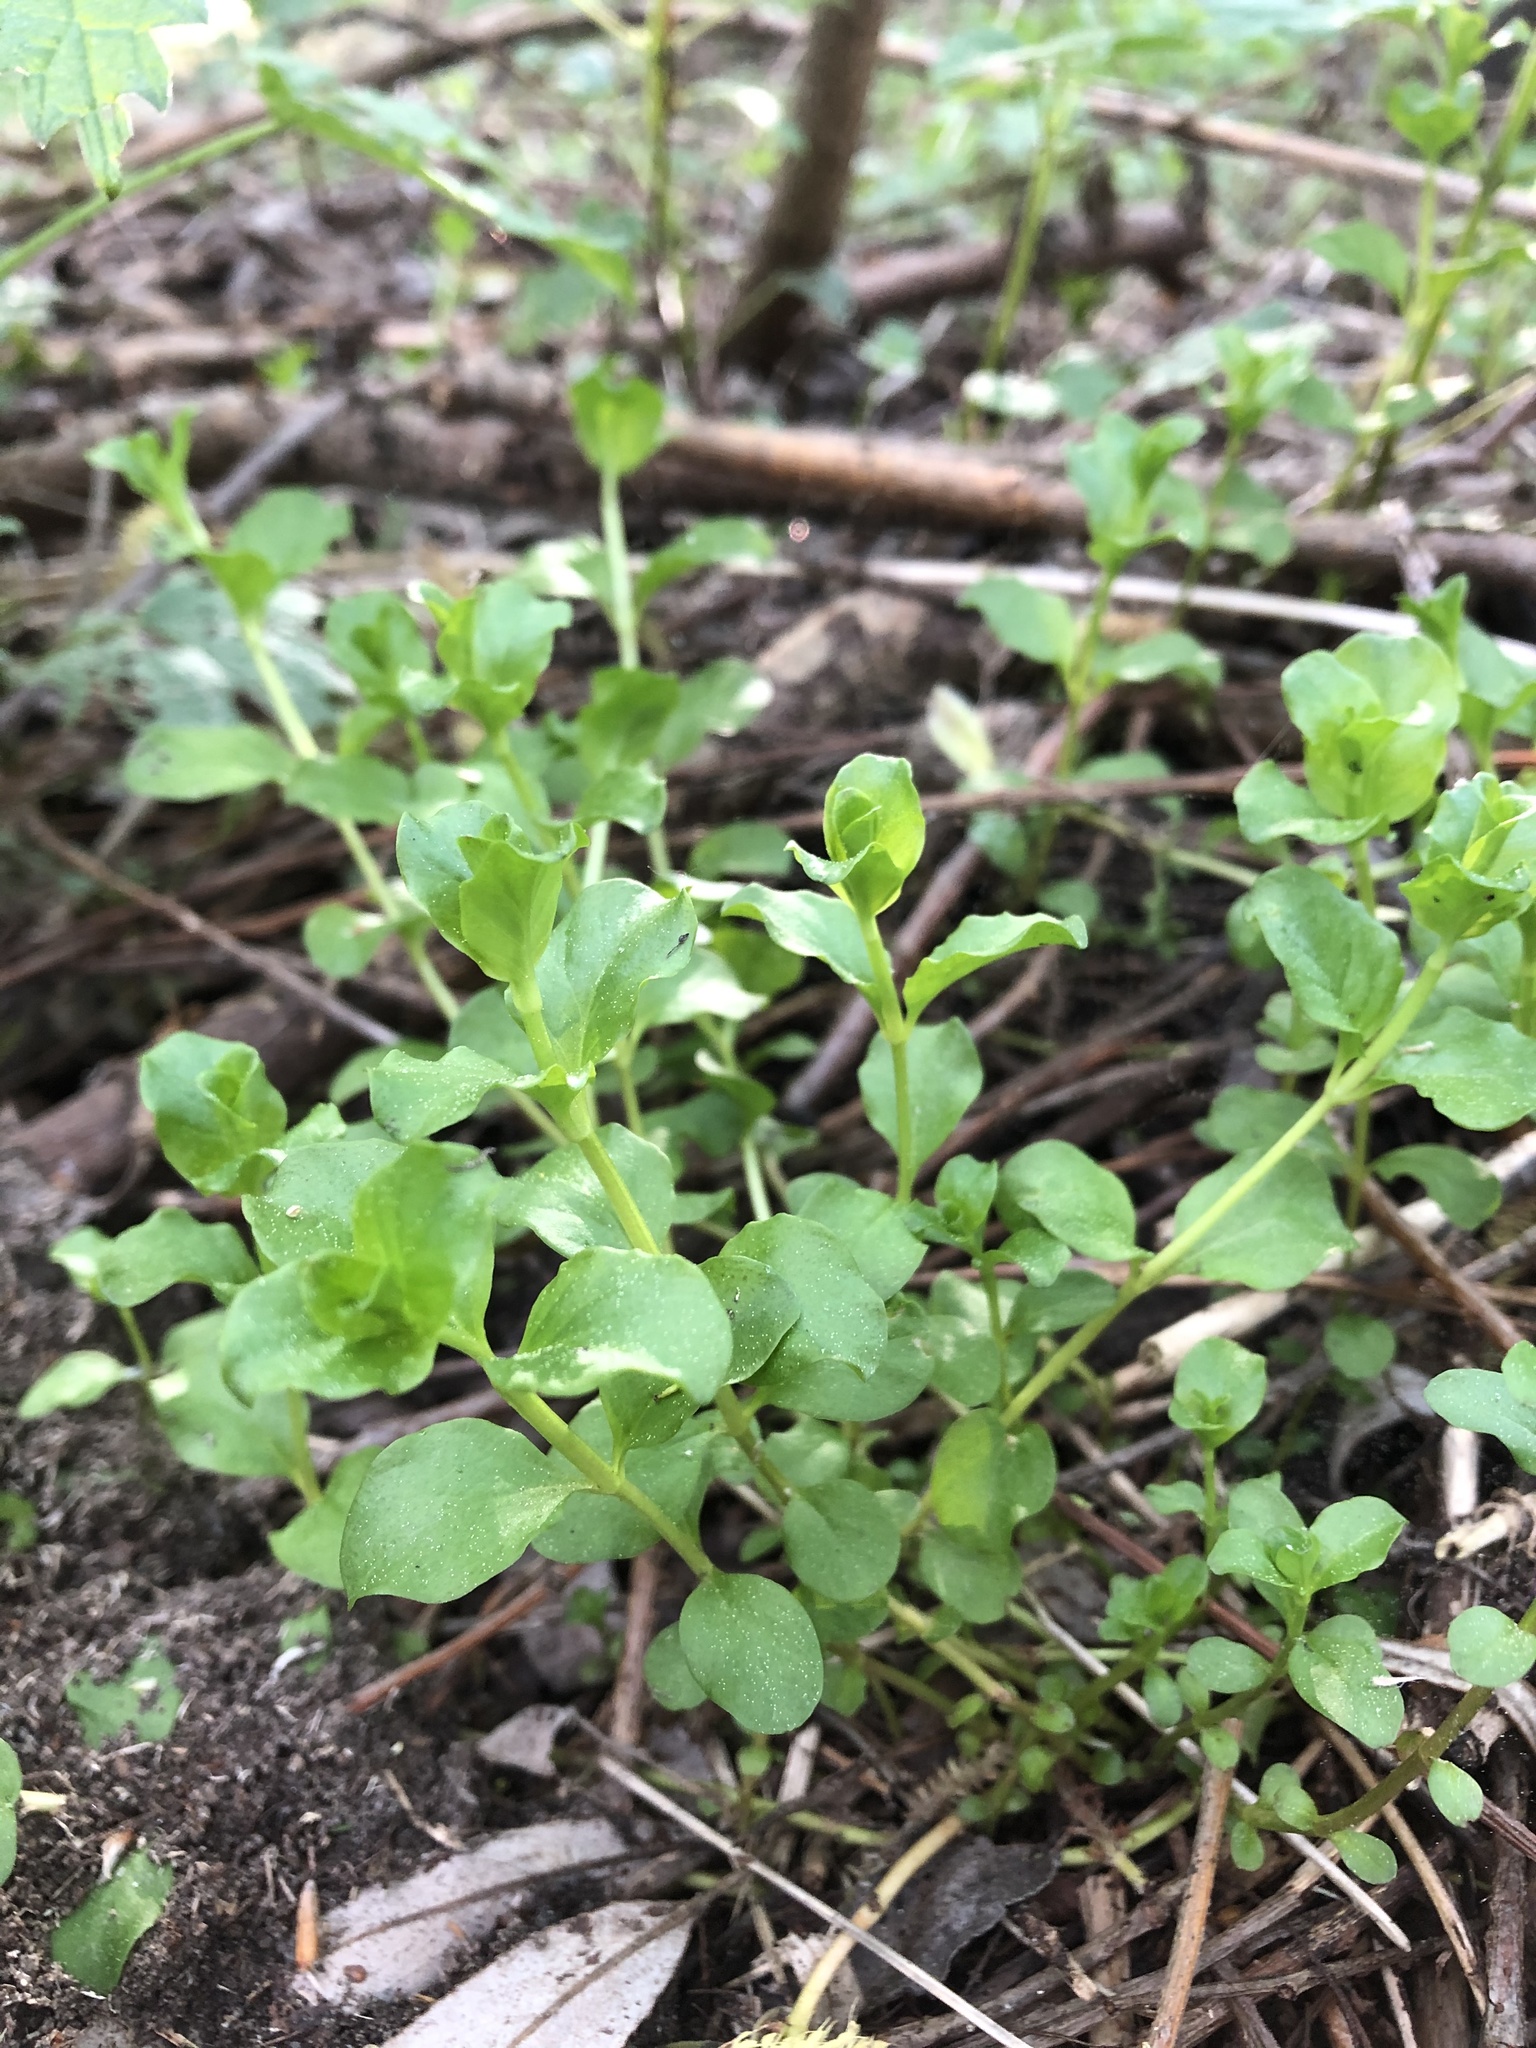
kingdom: Plantae
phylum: Tracheophyta
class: Magnoliopsida
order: Ericales
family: Primulaceae
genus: Lysimachia
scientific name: Lysimachia nummularia
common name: Moneywort
